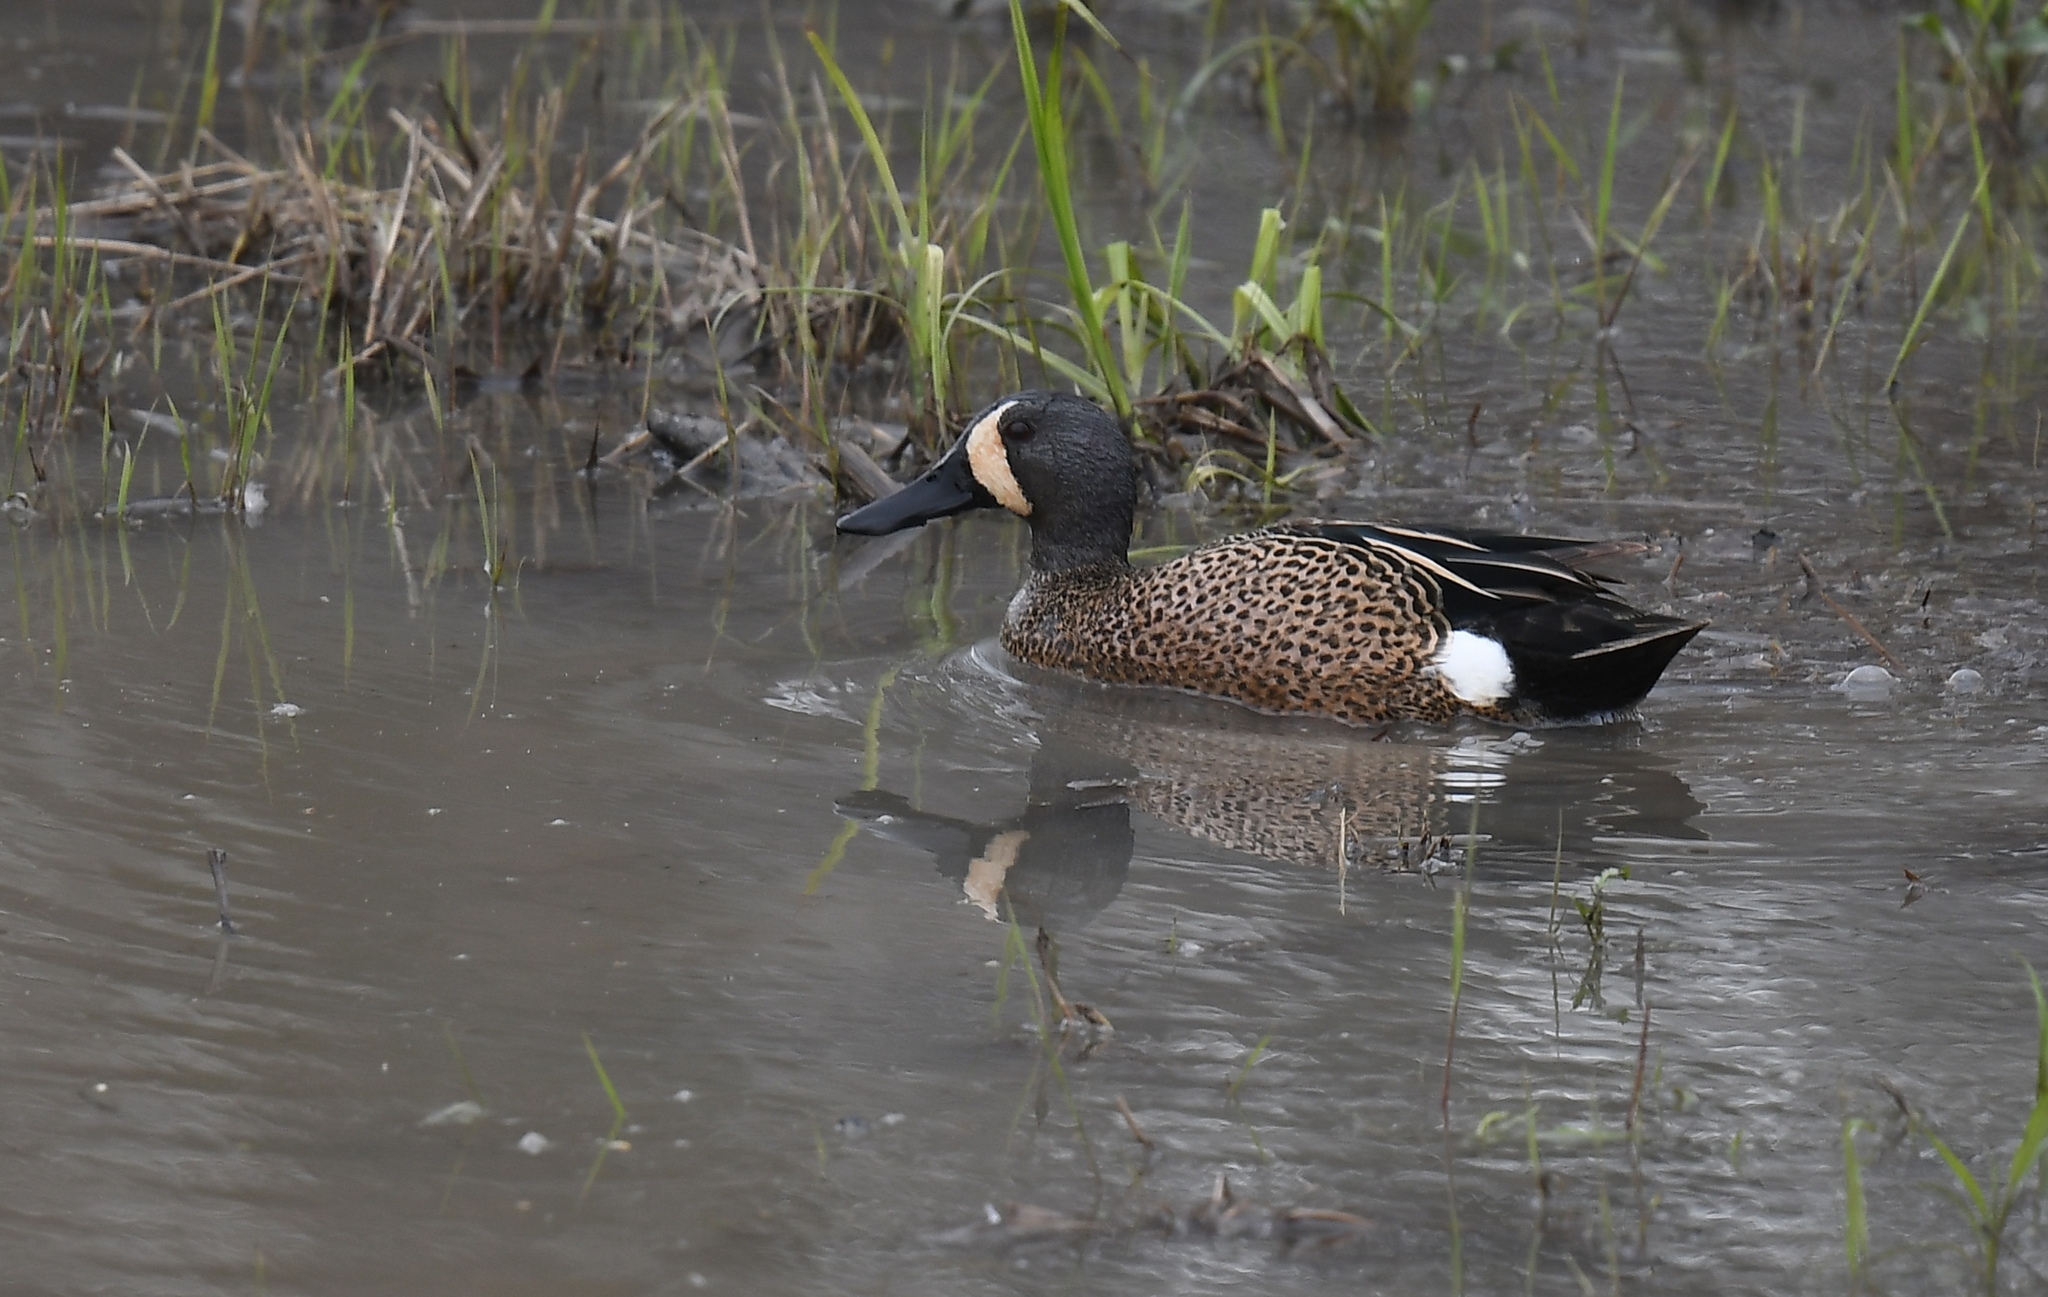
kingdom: Animalia
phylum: Chordata
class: Aves
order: Anseriformes
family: Anatidae
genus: Spatula
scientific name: Spatula discors
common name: Blue-winged teal
